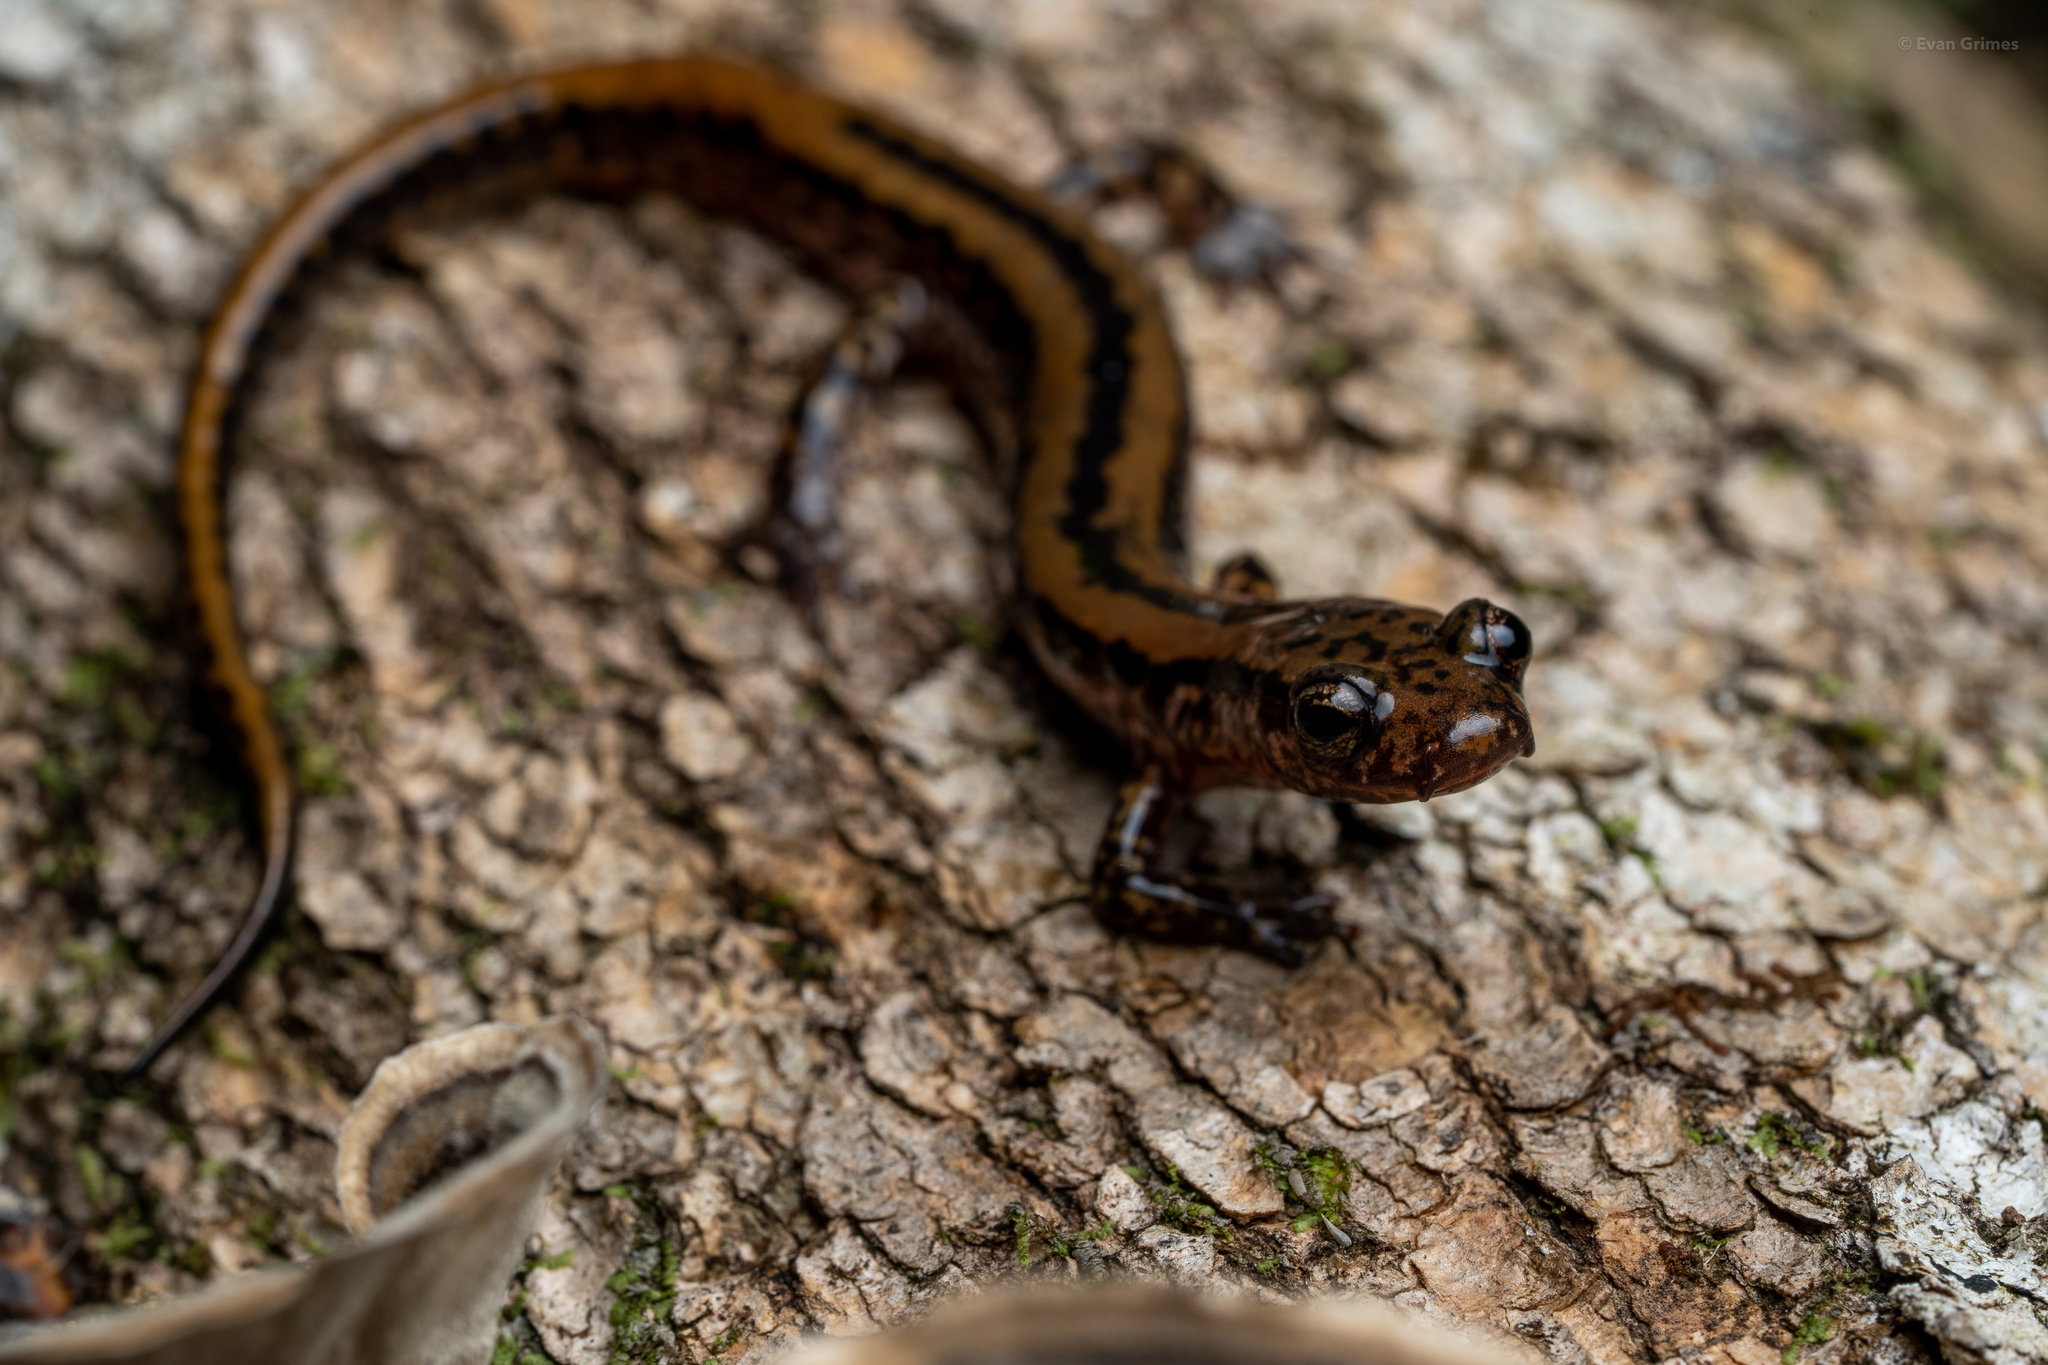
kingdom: Animalia
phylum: Chordata
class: Amphibia
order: Caudata
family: Plethodontidae
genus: Eurycea
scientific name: Eurycea guttolineata
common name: Three-lined salamander
